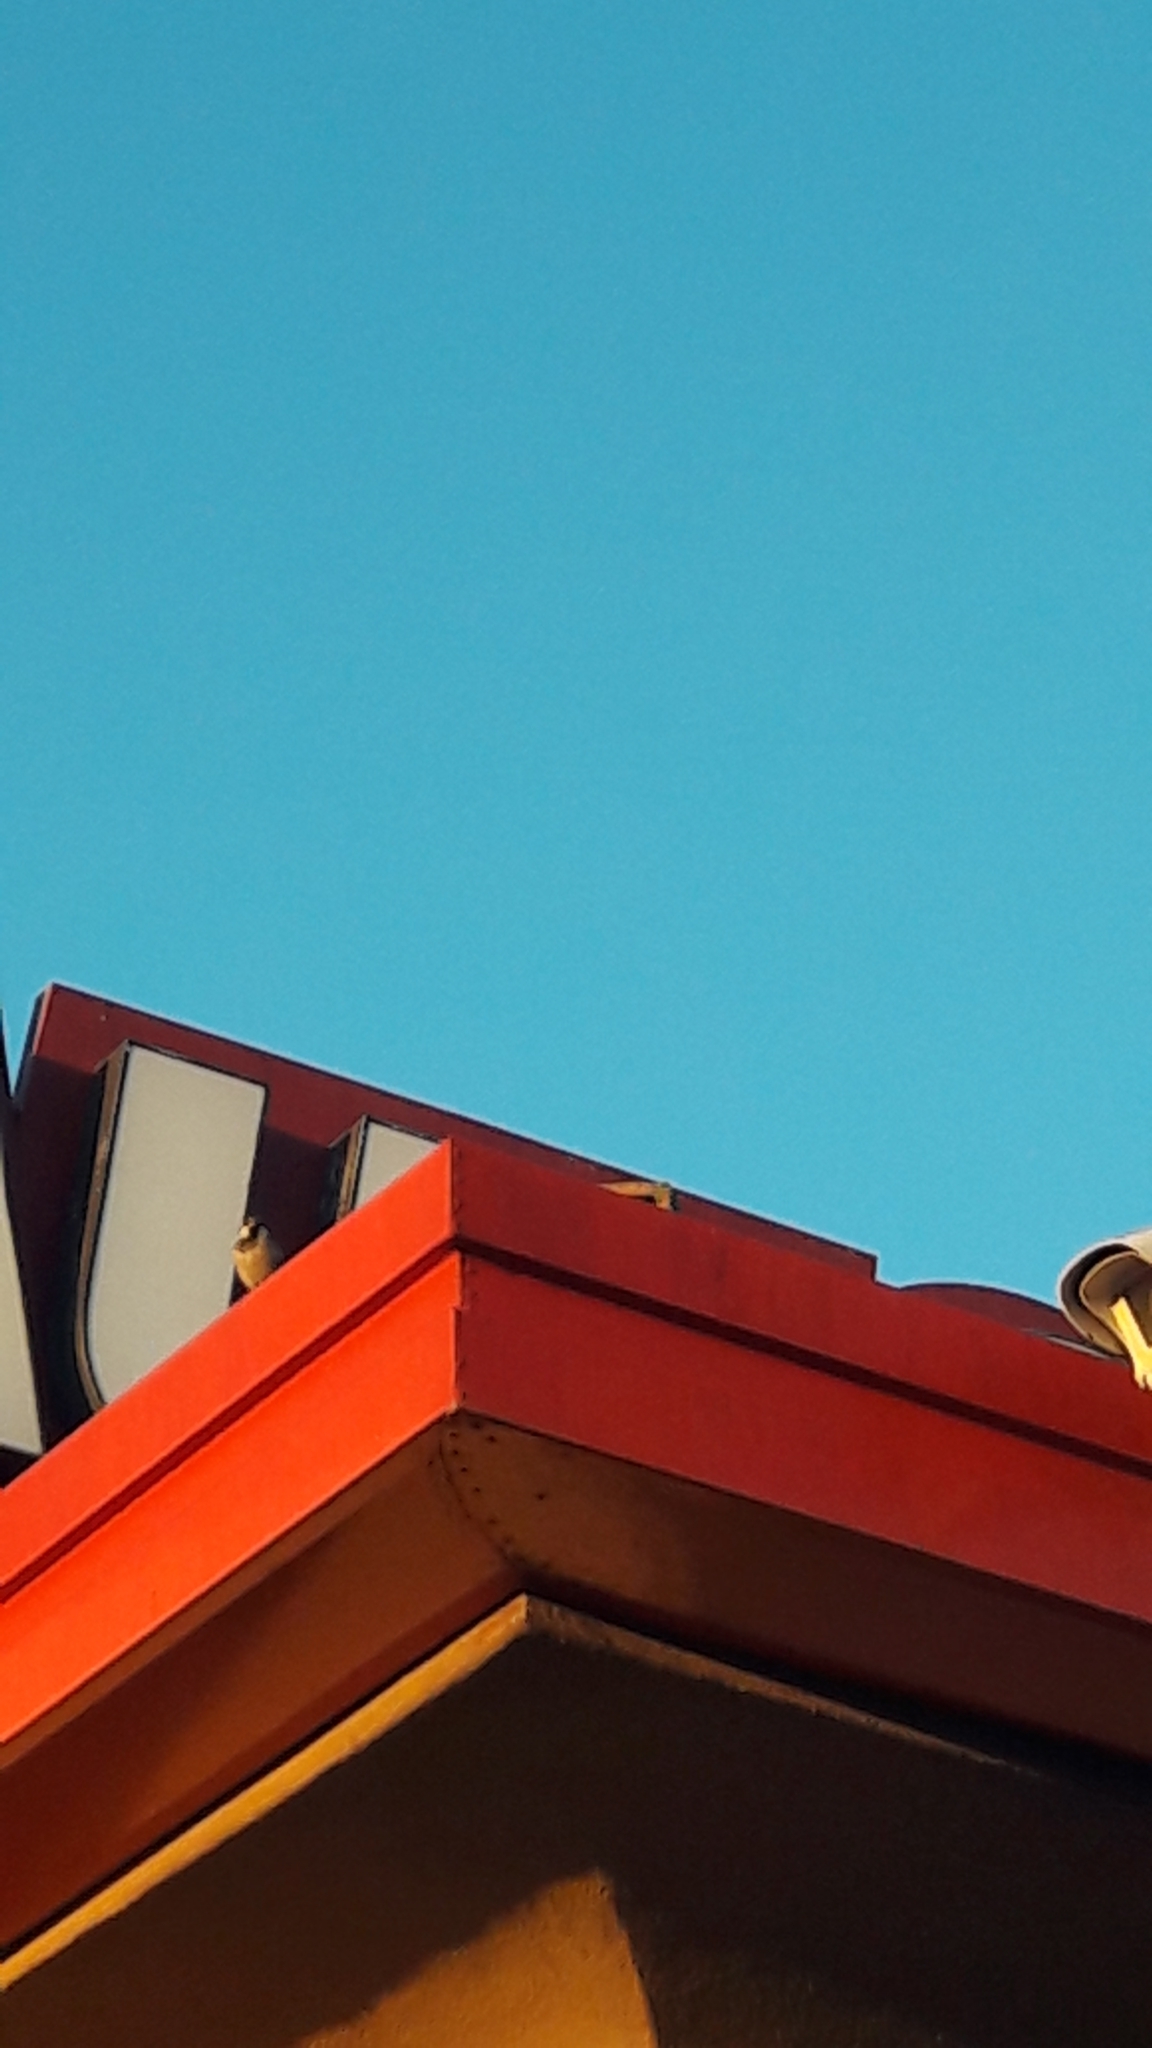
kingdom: Animalia
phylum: Chordata
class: Aves
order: Passeriformes
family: Passeridae
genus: Passer
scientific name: Passer italiae
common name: Italian sparrow
